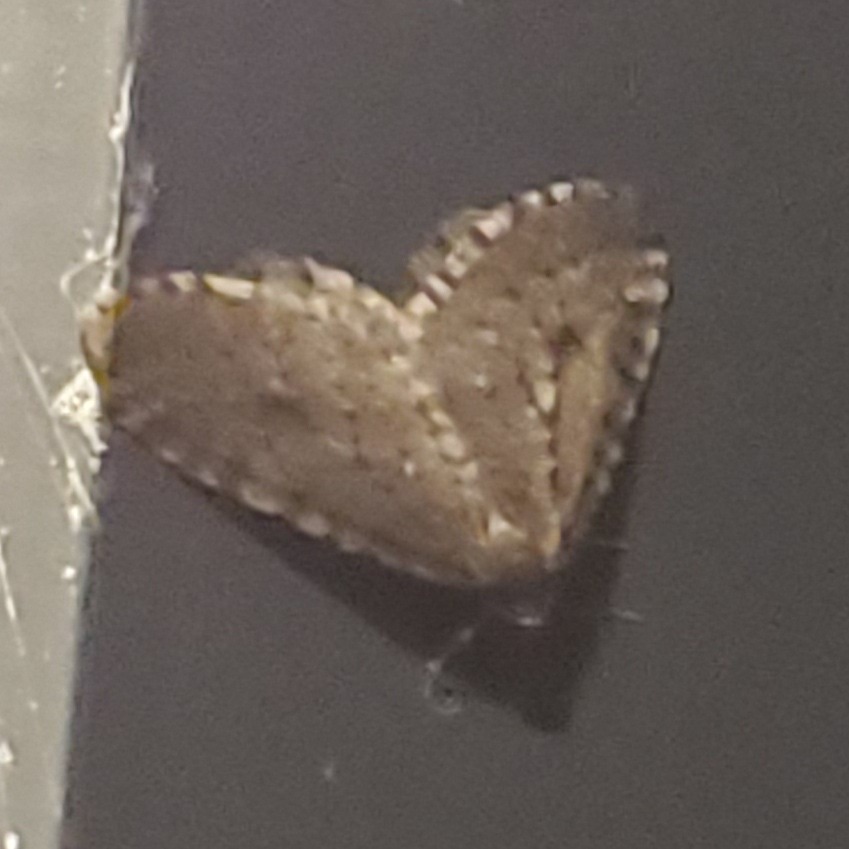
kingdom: Animalia
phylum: Arthropoda
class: Insecta
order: Lepidoptera
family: Geometridae
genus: Operophtera
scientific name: Operophtera
